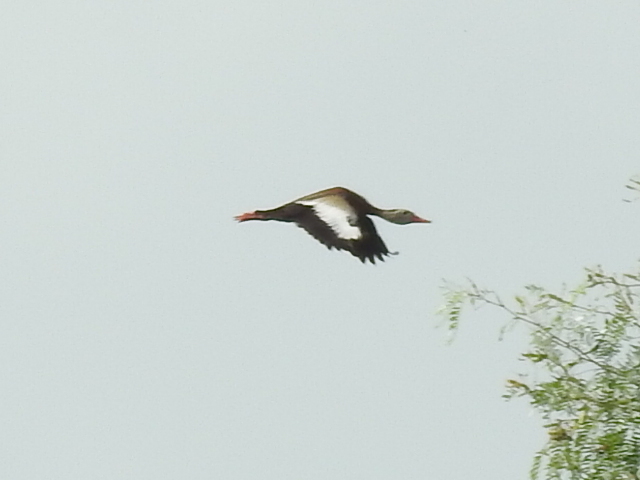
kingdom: Animalia
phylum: Chordata
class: Aves
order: Anseriformes
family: Anatidae
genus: Dendrocygna
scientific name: Dendrocygna autumnalis
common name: Black-bellied whistling duck
